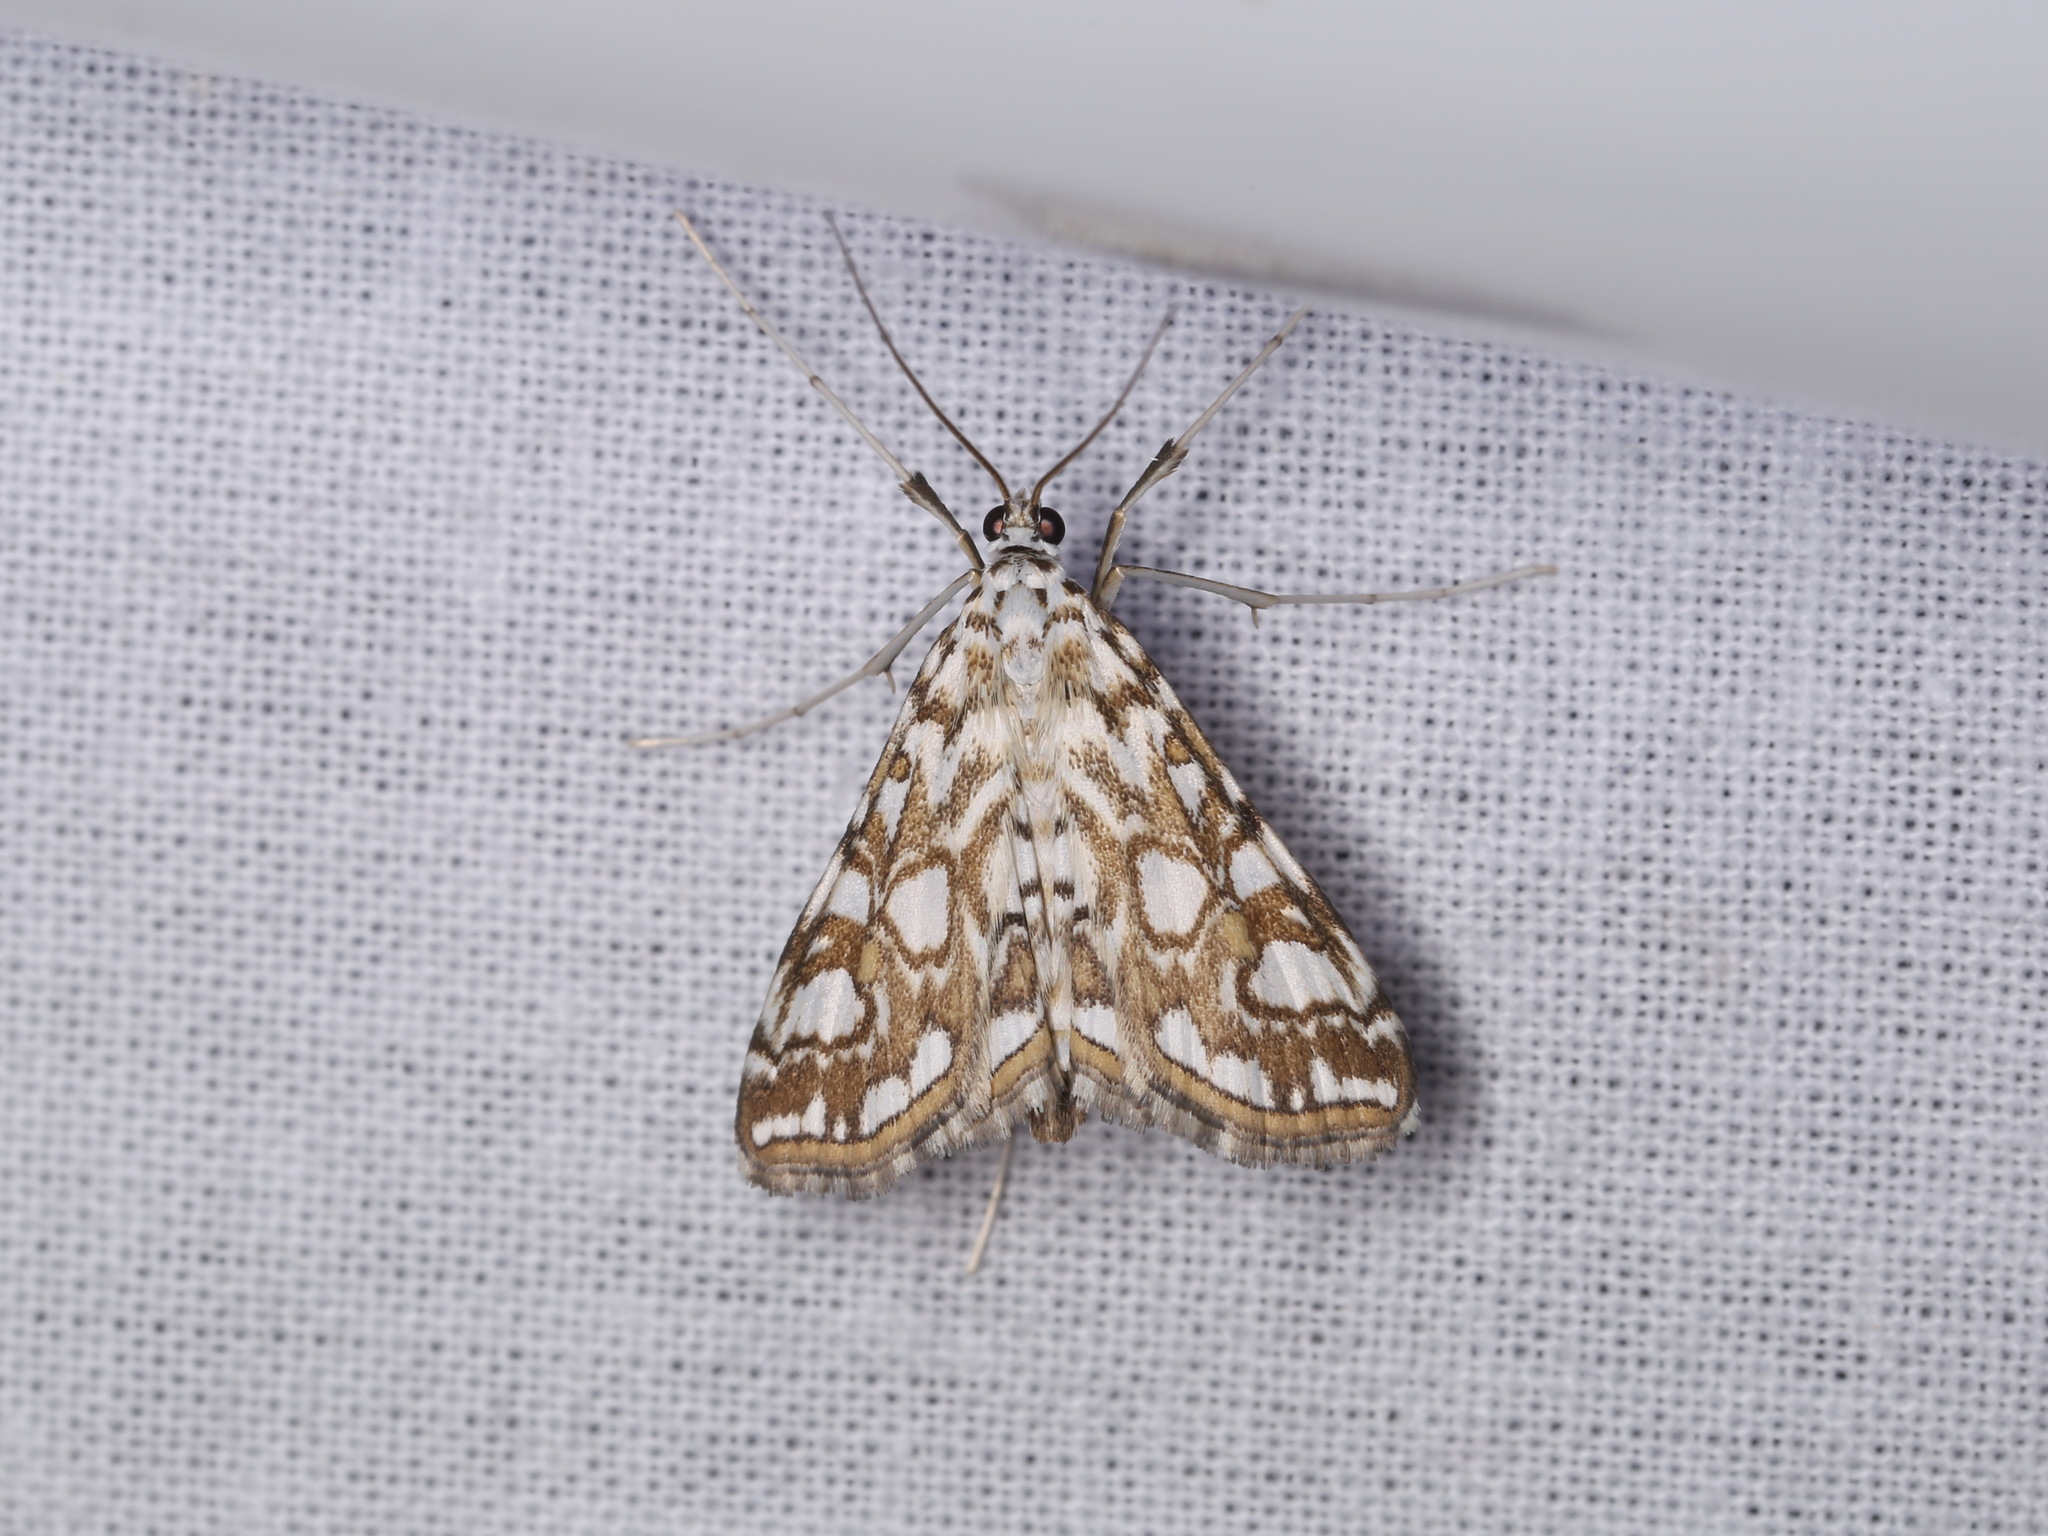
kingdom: Animalia
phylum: Arthropoda
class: Insecta
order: Lepidoptera
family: Crambidae
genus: Elophila
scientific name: Elophila nymphaeata
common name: Brown china-mark
